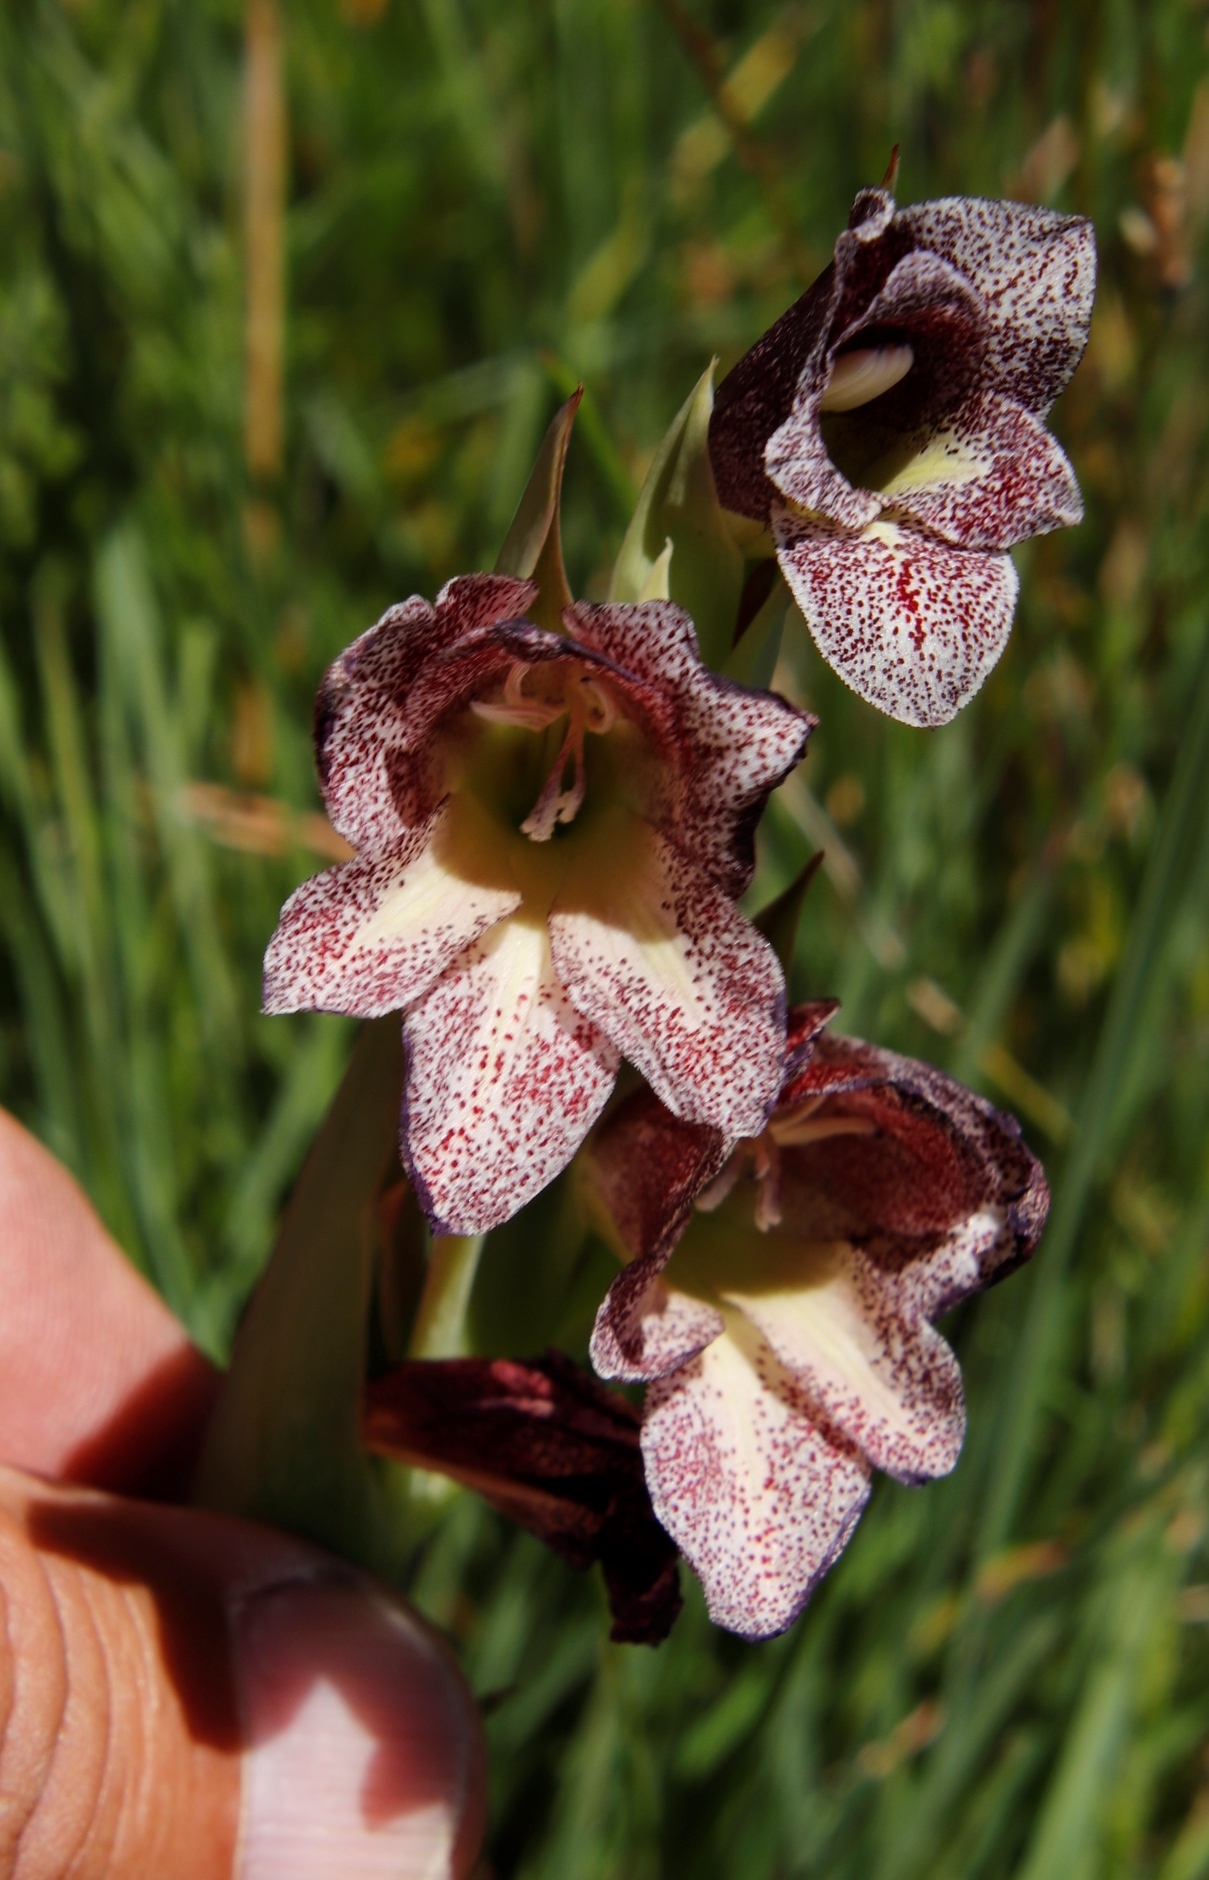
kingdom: Plantae
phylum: Tracheophyta
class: Liliopsida
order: Asparagales
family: Iridaceae
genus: Gladiolus
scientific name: Gladiolus ecklonii
